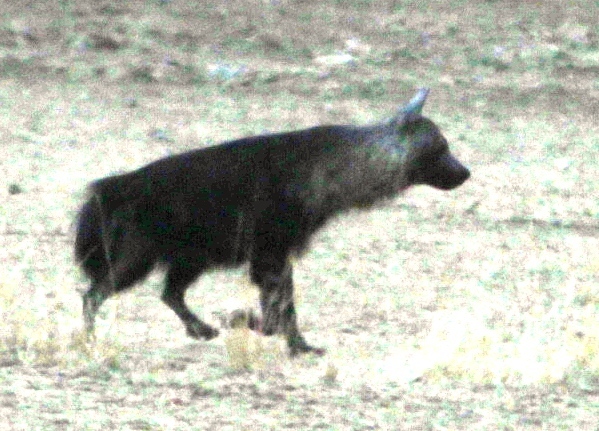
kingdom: Animalia
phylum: Chordata
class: Mammalia
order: Carnivora
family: Hyaenidae
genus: Hyaena
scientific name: Hyaena brunnea
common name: Brown hyena
